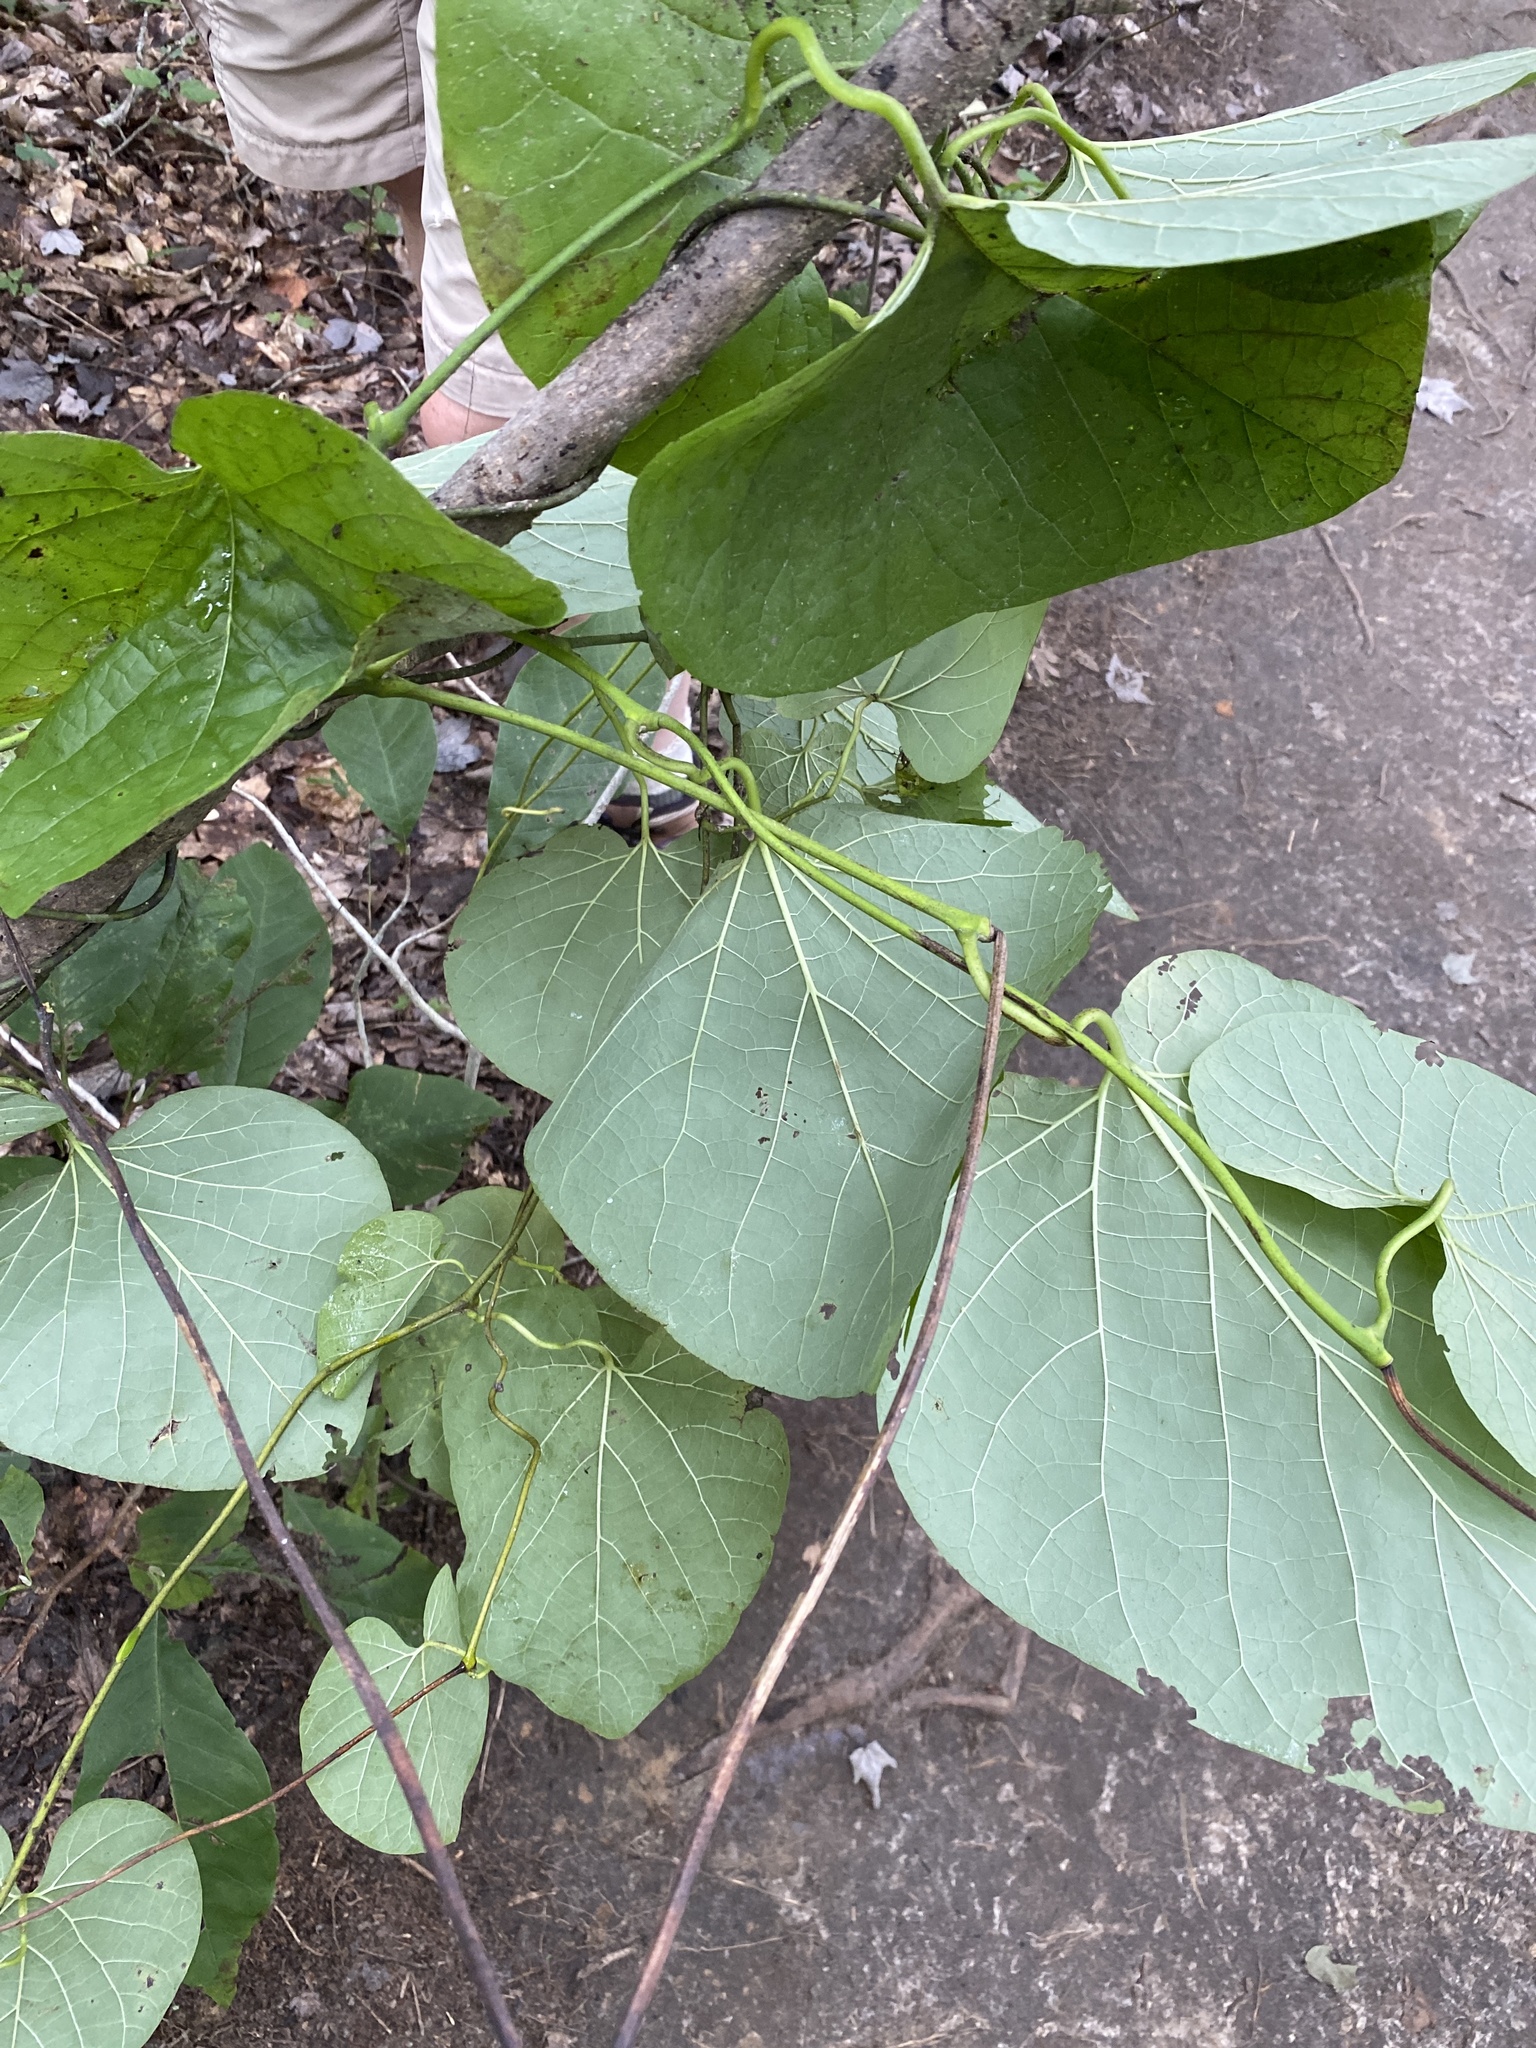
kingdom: Plantae
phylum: Tracheophyta
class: Magnoliopsida
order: Piperales
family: Aristolochiaceae
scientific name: Aristolochiaceae
